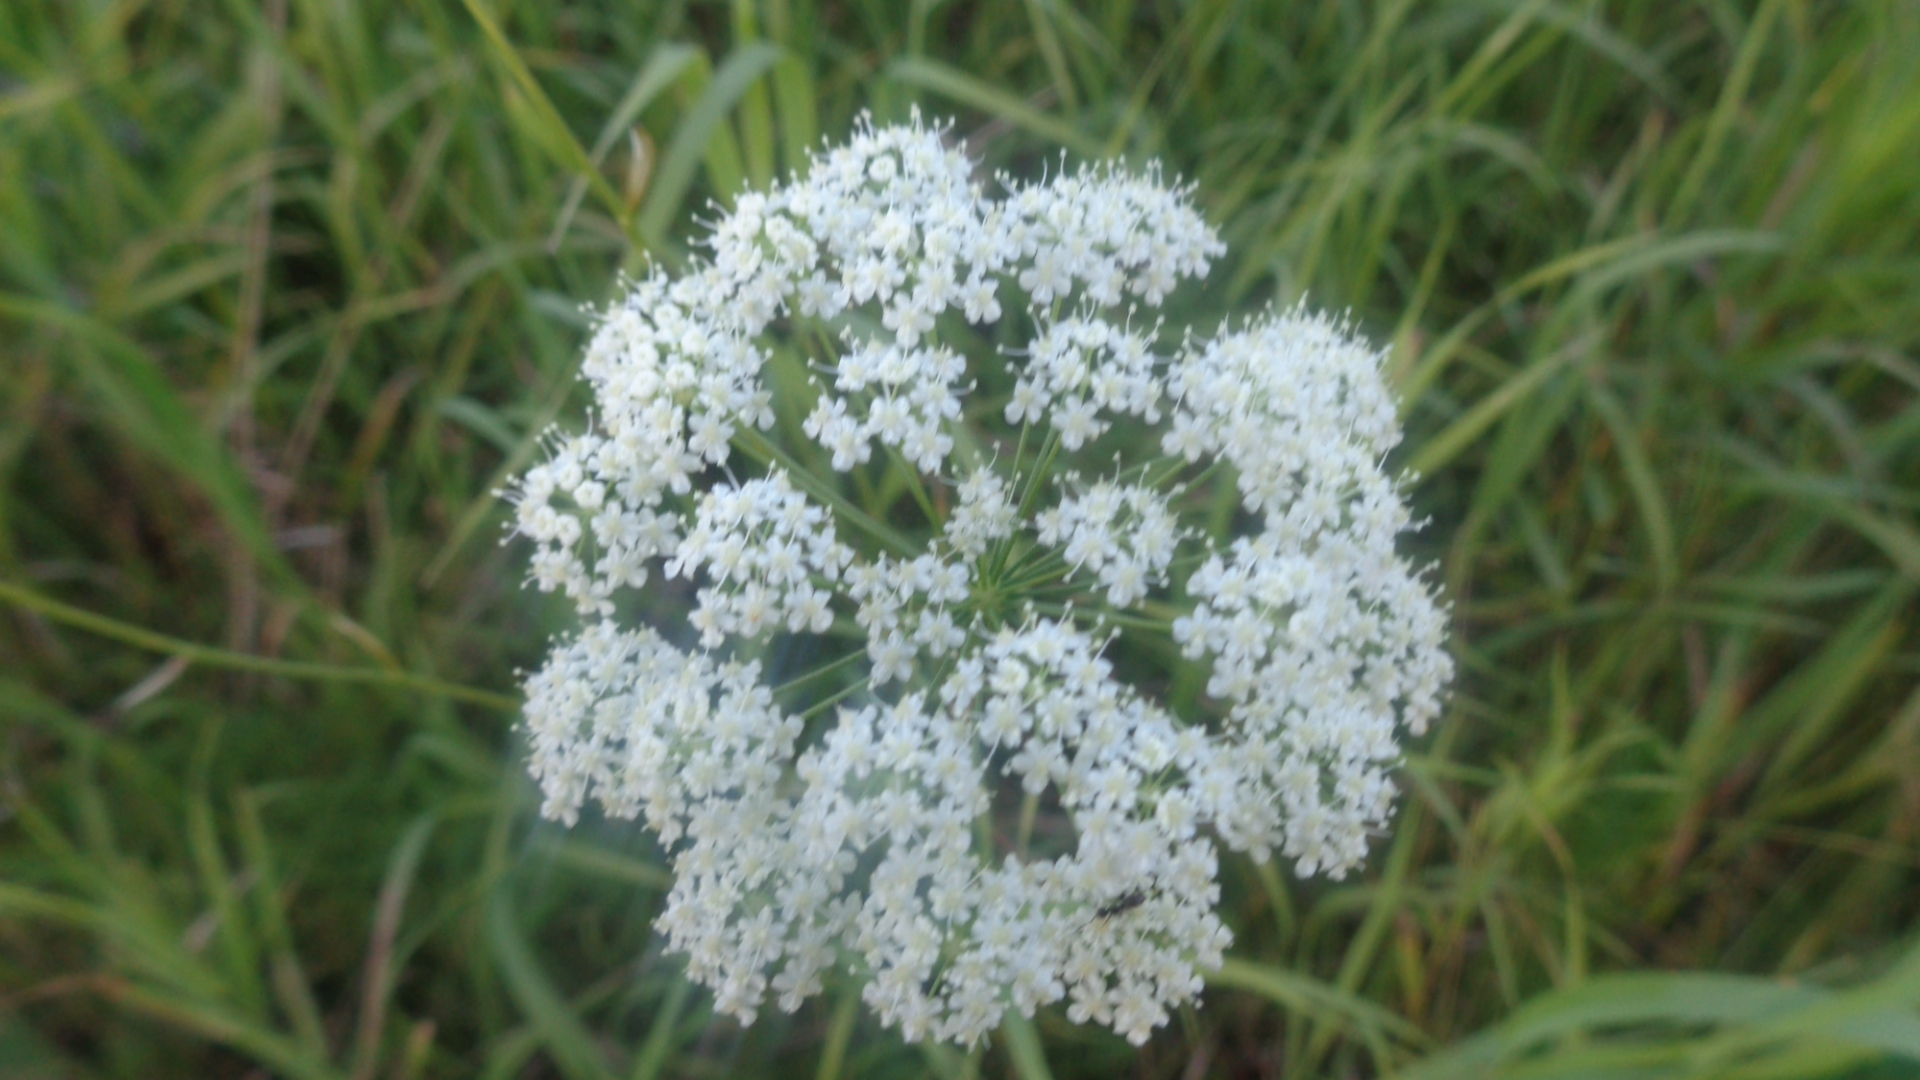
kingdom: Plantae
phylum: Tracheophyta
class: Magnoliopsida
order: Apiales
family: Apiaceae
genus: Pimpinella
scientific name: Pimpinella saxifraga
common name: Burnet-saxifrage
